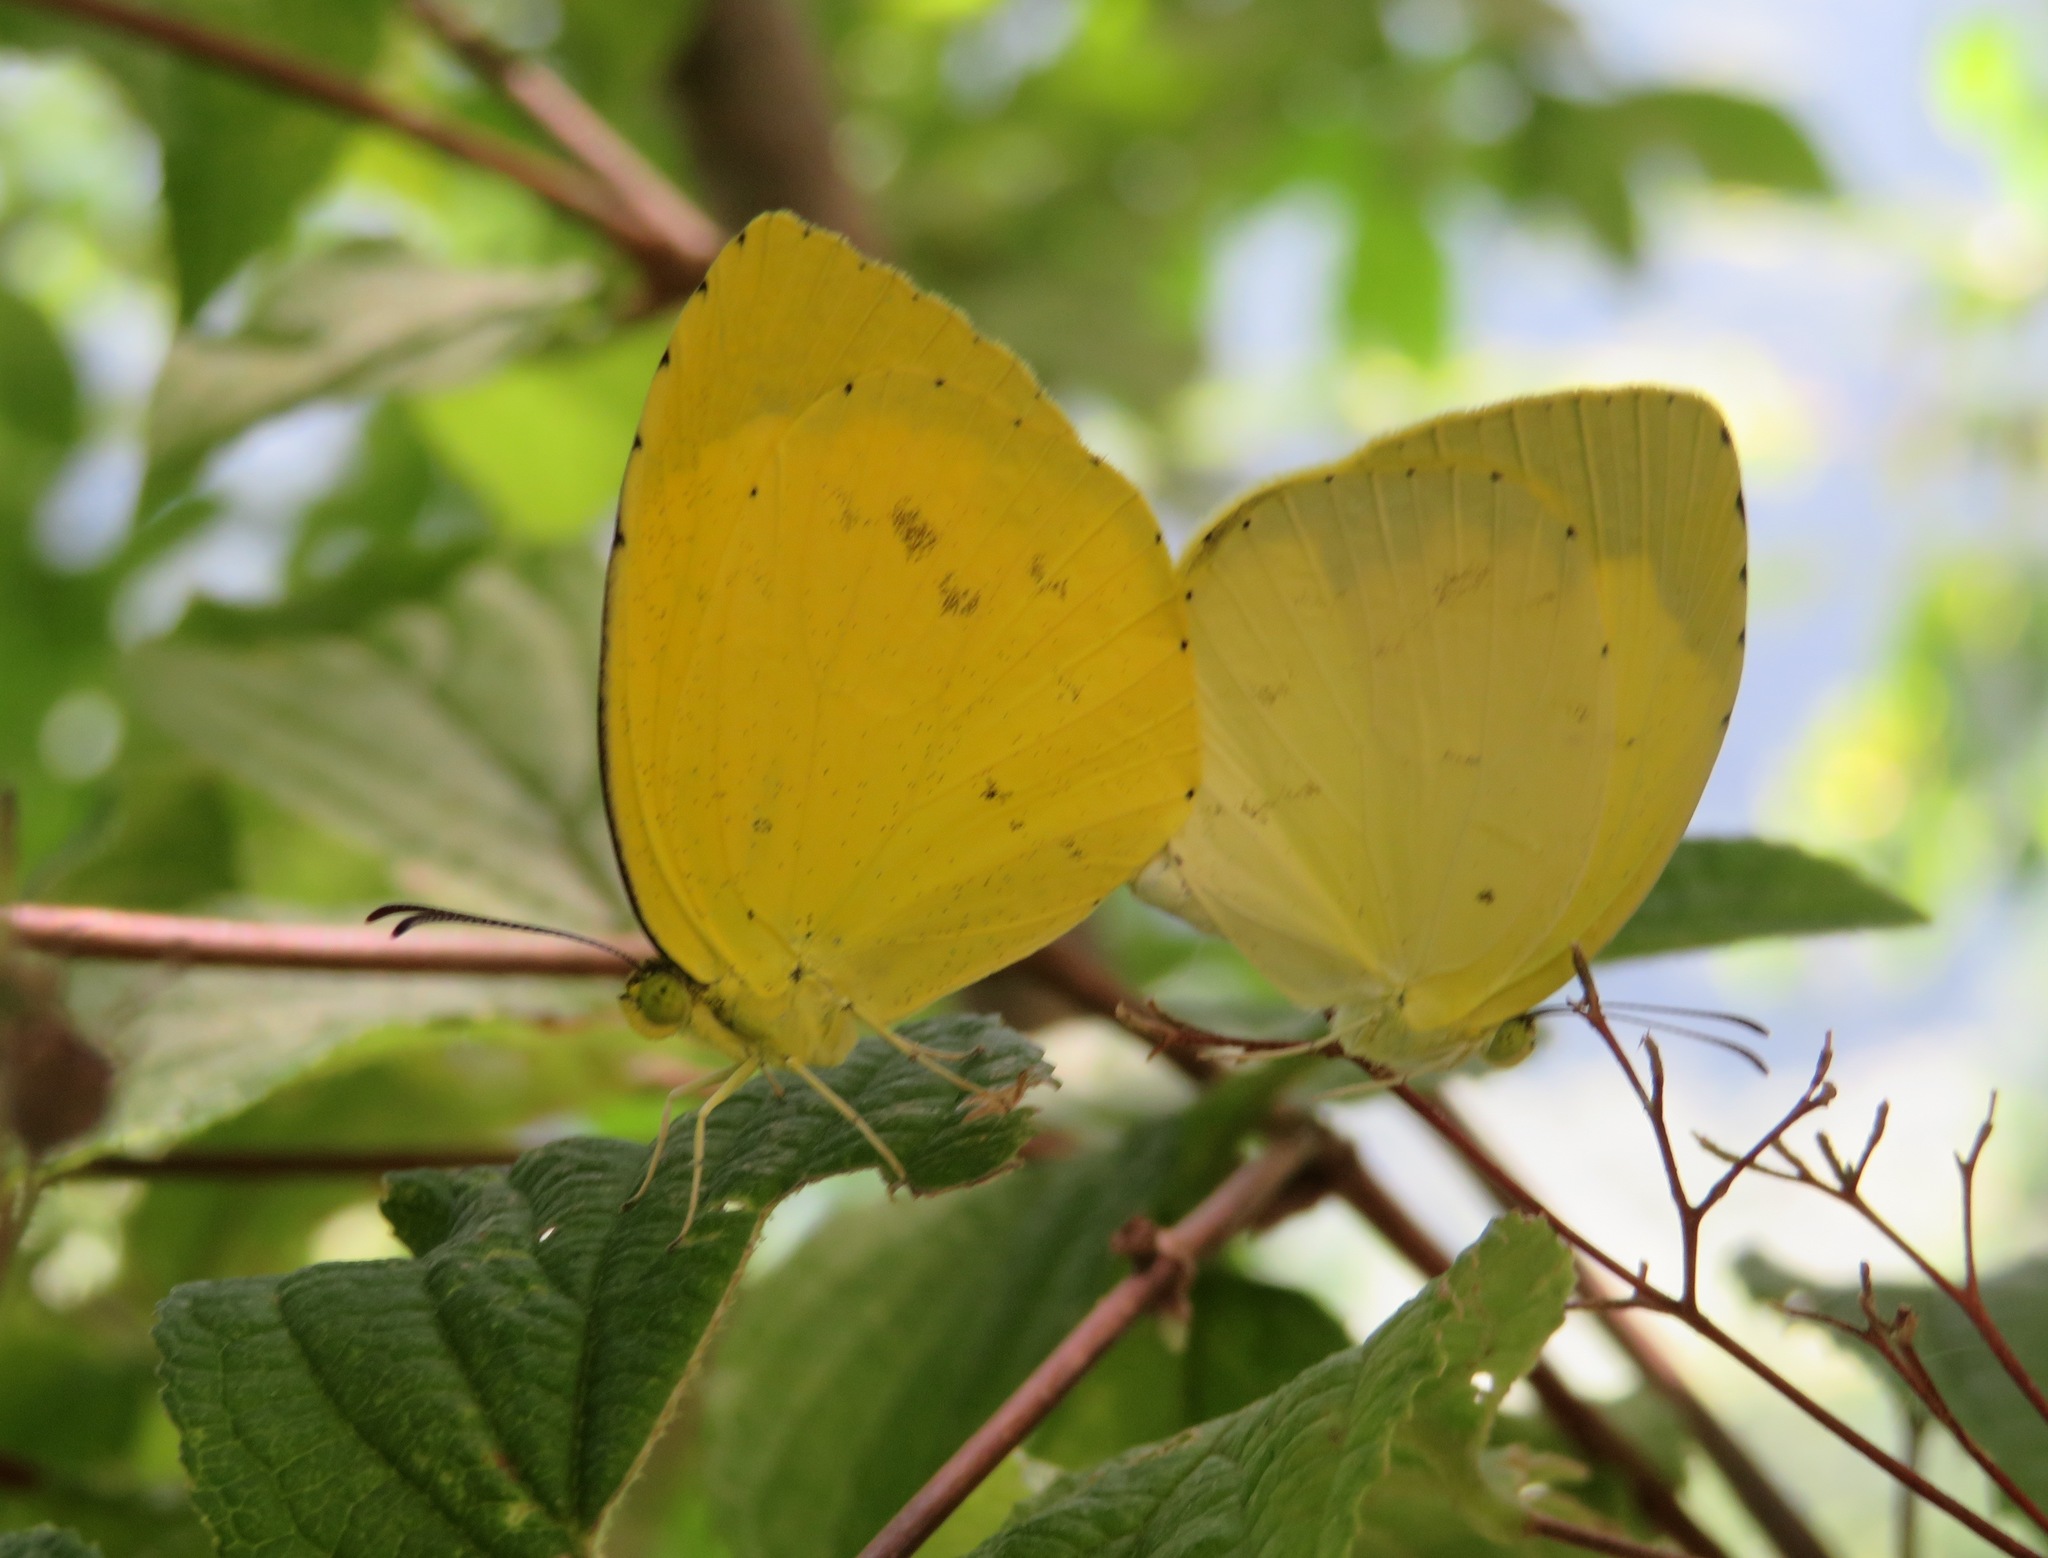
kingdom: Animalia
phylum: Arthropoda
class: Insecta
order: Lepidoptera
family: Pieridae
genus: Eurema
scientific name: Eurema mandarina
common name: Japanese common grass yellow
